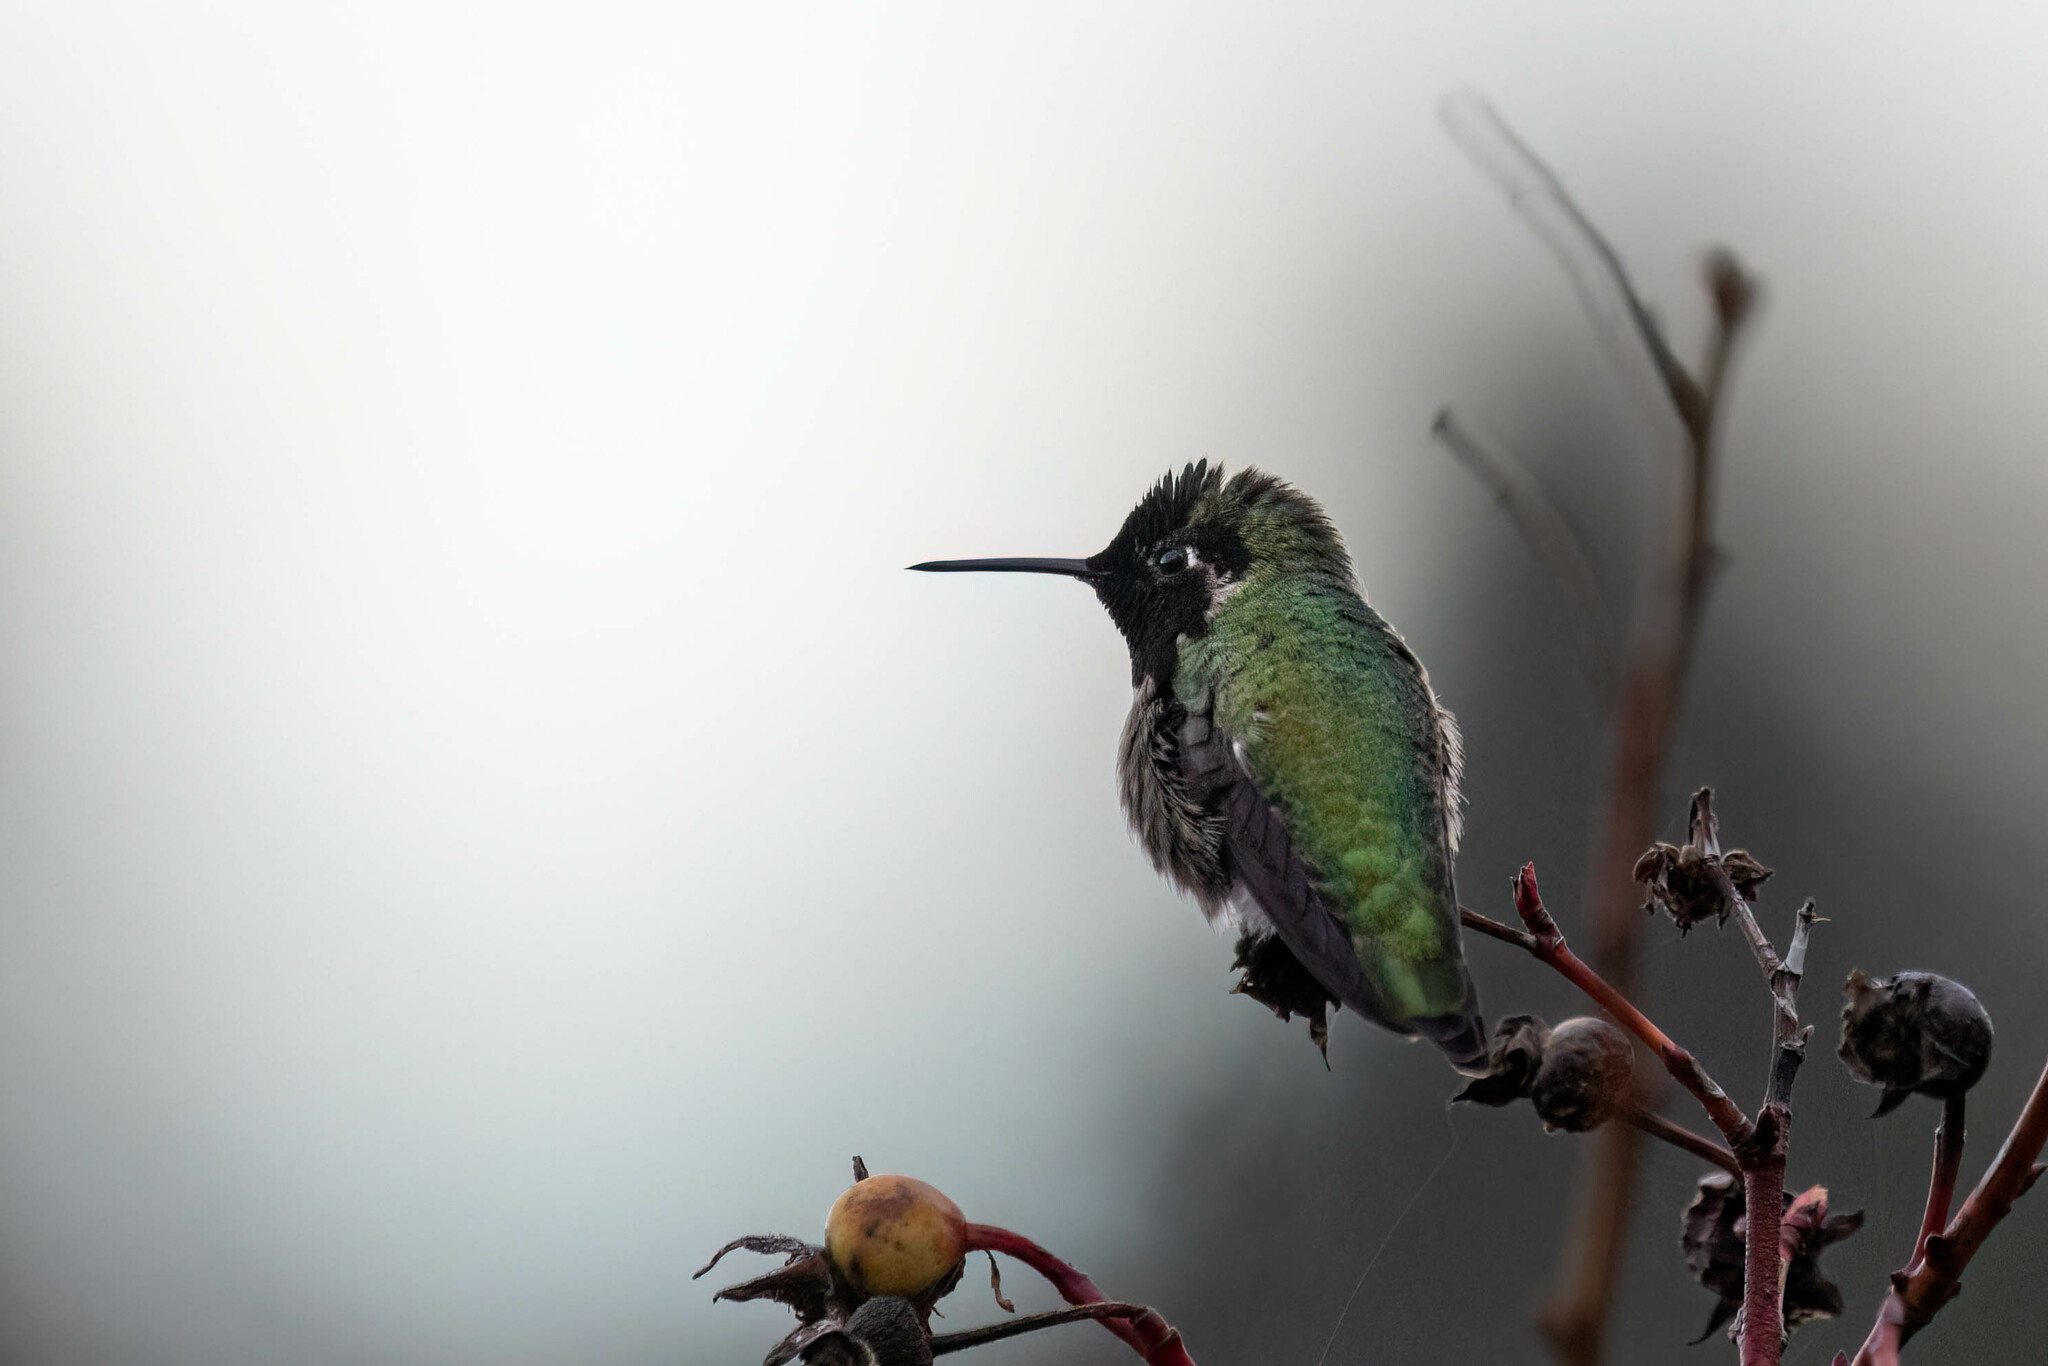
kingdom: Animalia
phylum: Chordata
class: Aves
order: Apodiformes
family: Trochilidae
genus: Calypte
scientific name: Calypte anna
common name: Anna's hummingbird
